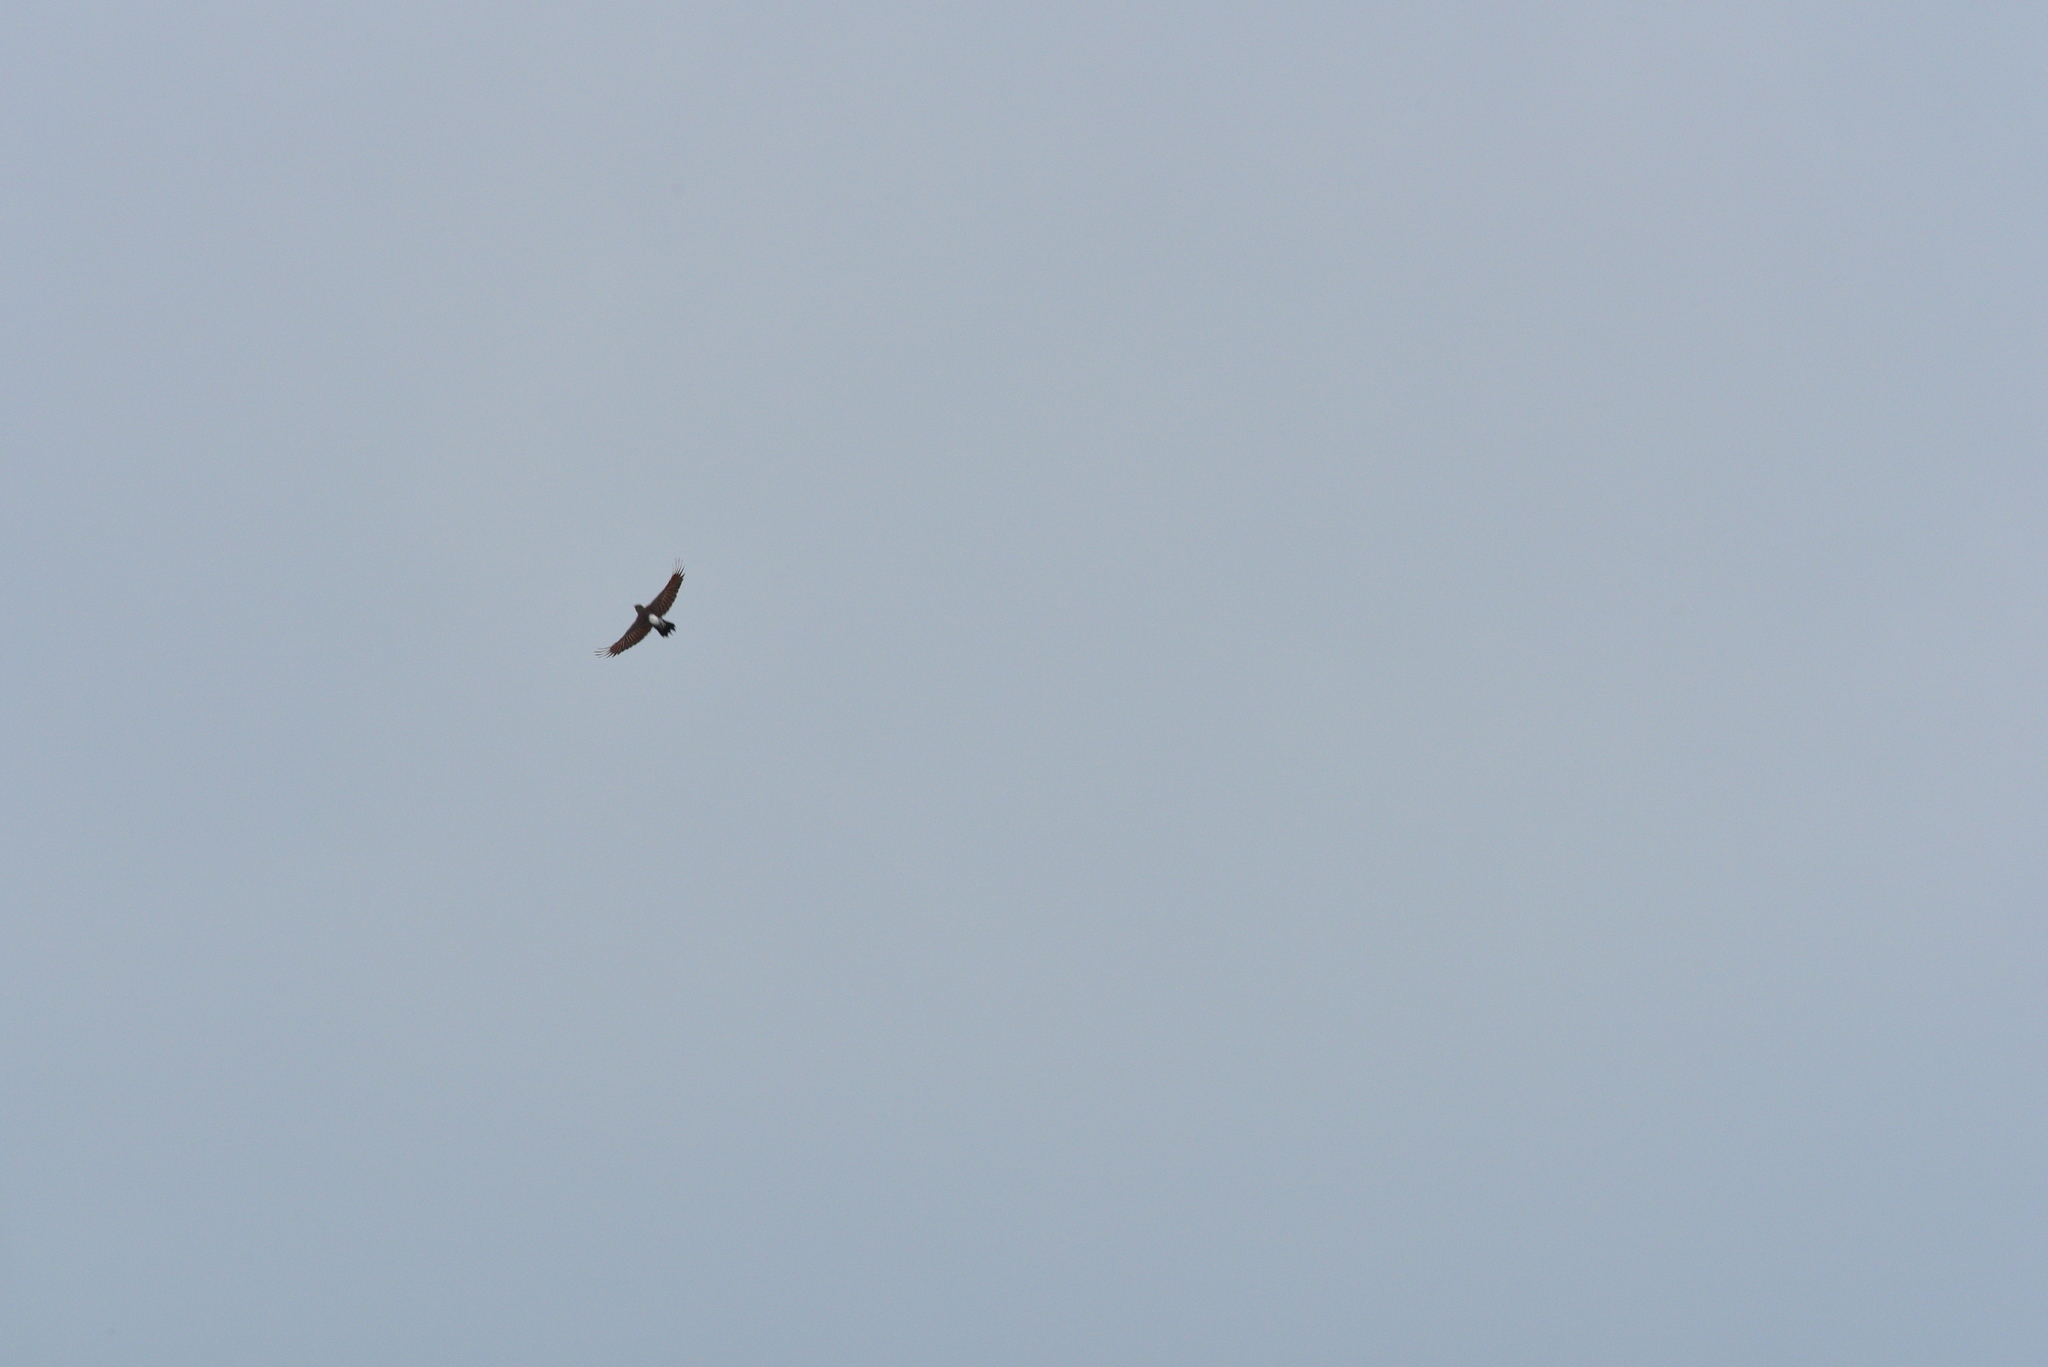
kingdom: Animalia
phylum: Chordata
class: Aves
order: Piciformes
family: Picidae
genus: Colaptes
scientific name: Colaptes auratus
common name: Northern flicker
